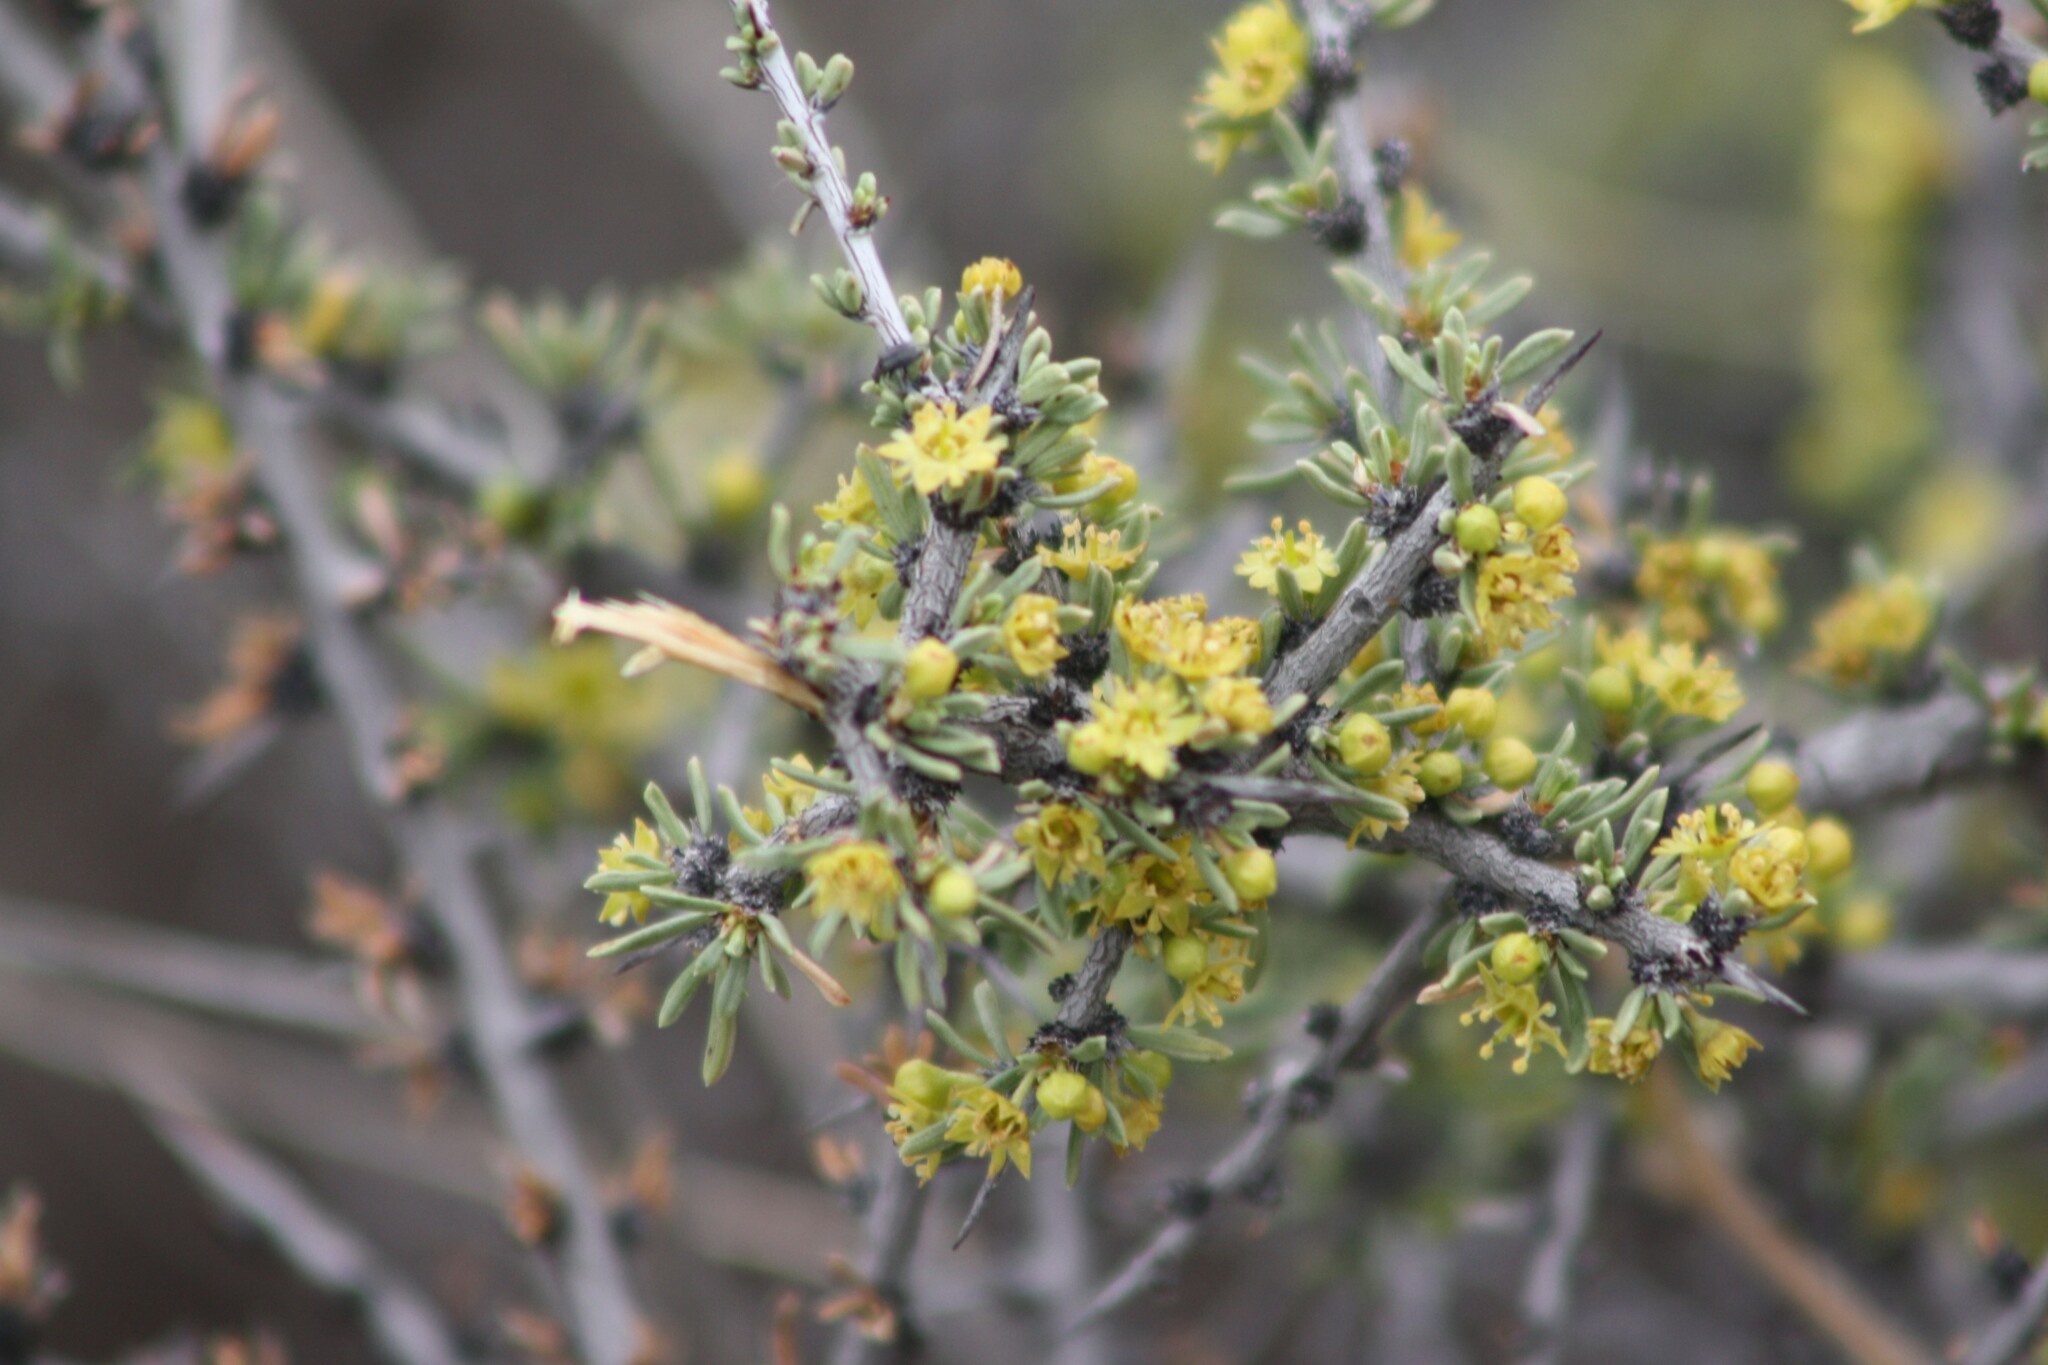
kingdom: Plantae
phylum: Tracheophyta
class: Magnoliopsida
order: Rosales
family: Rhamnaceae
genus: Condalia
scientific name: Condalia ericoides
